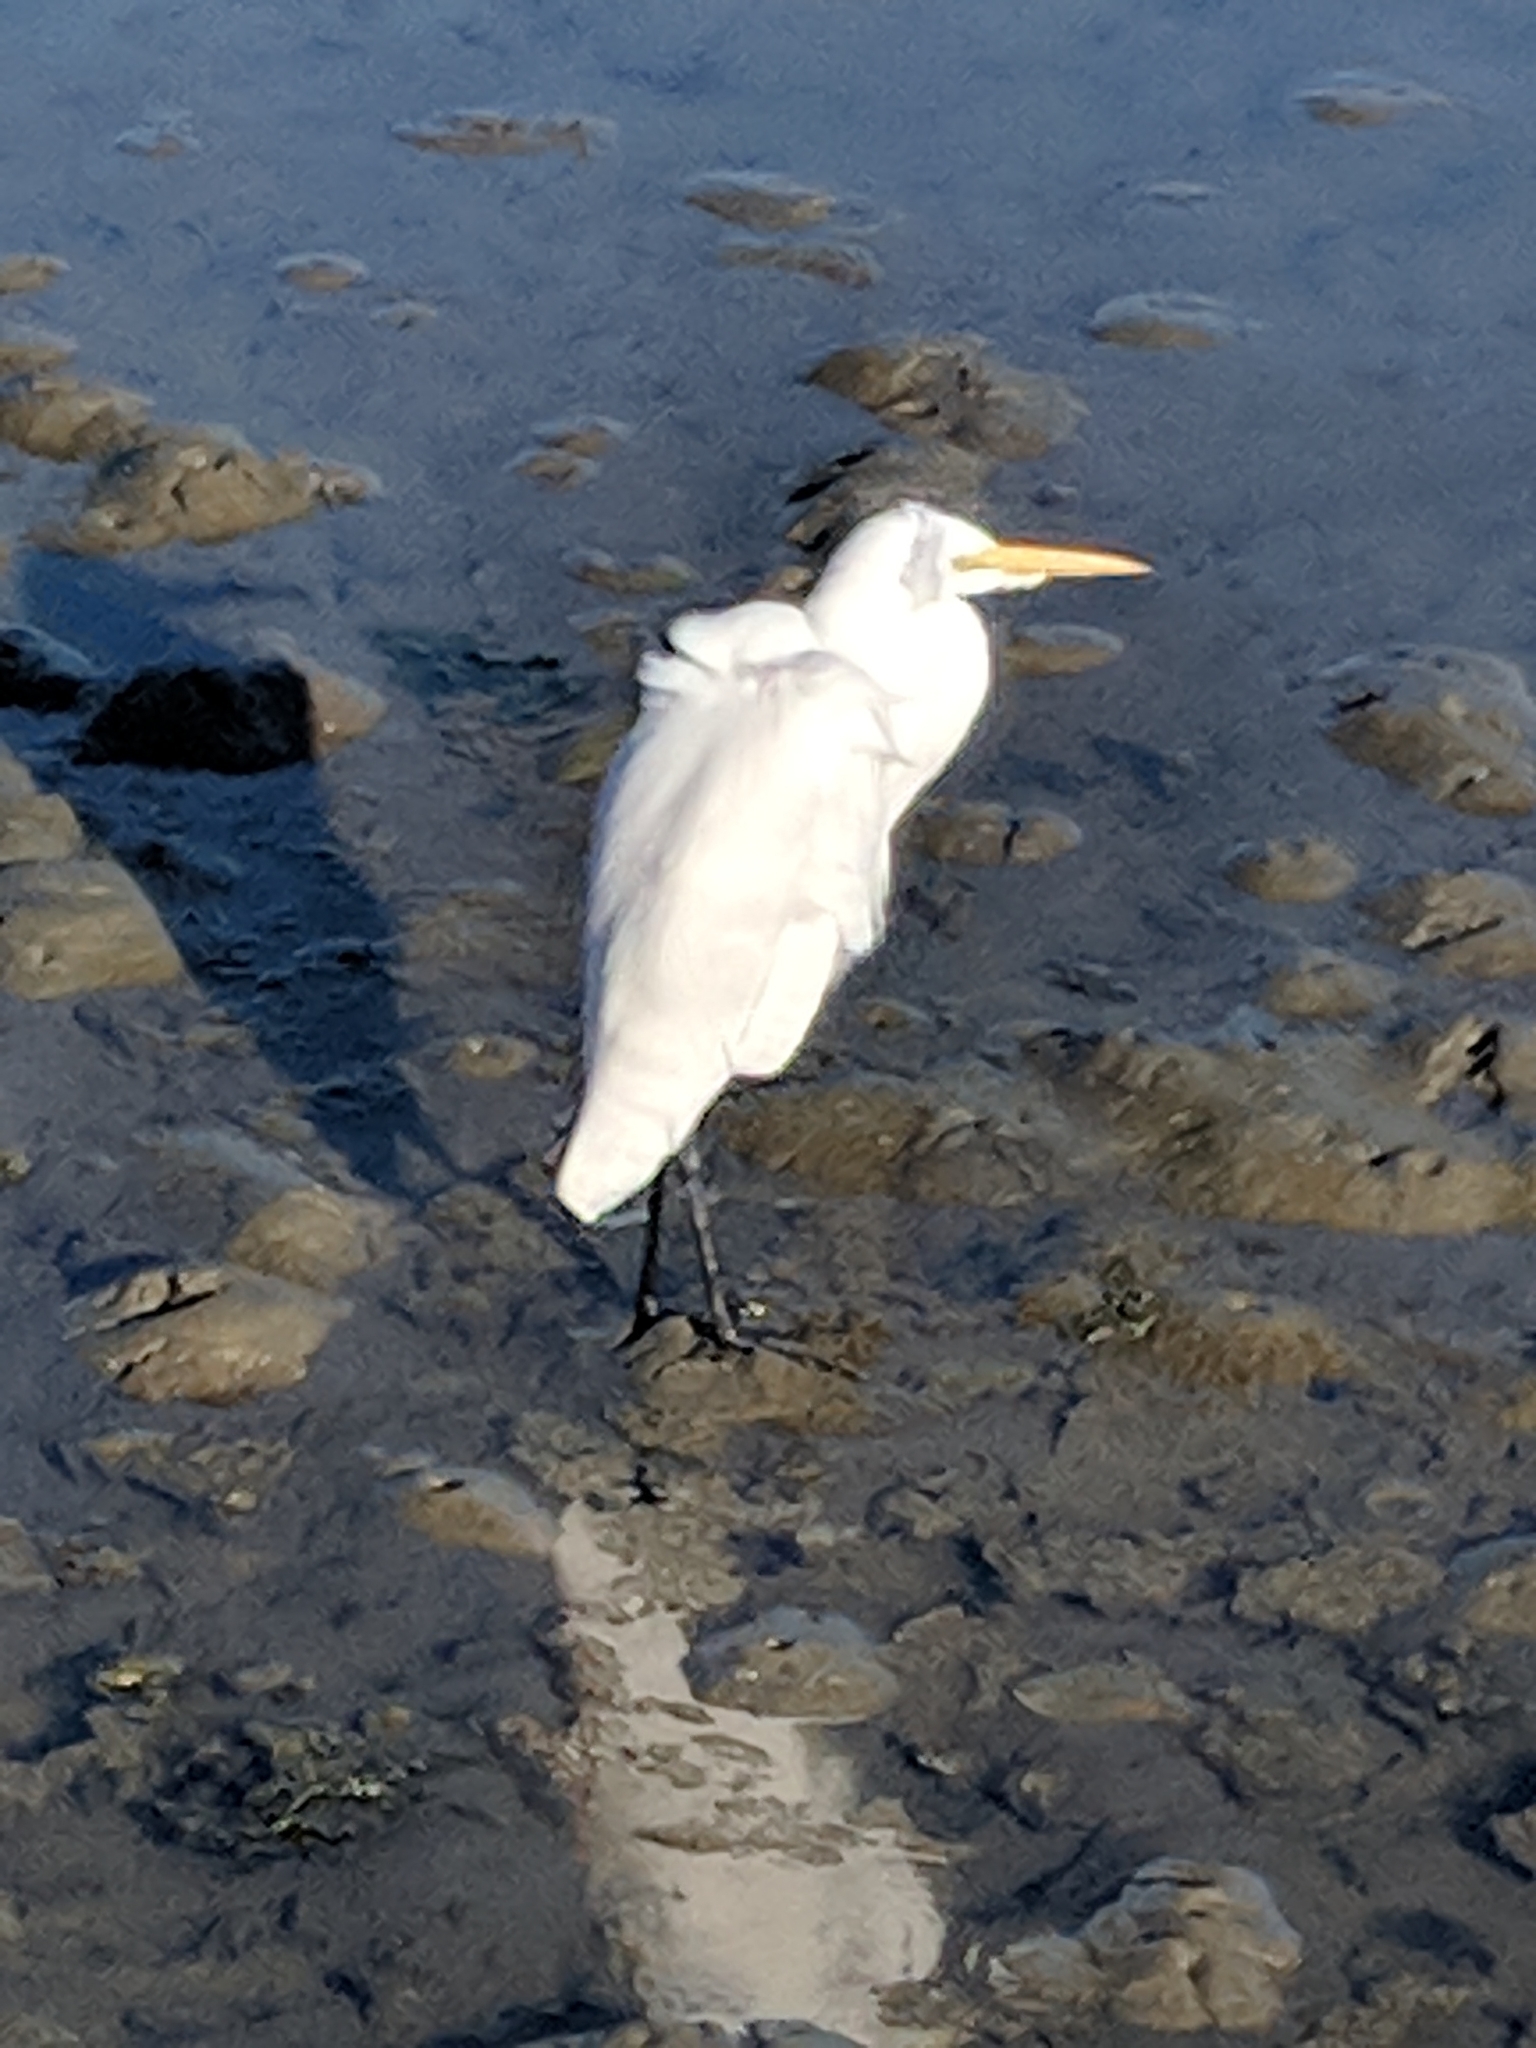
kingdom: Animalia
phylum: Chordata
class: Aves
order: Pelecaniformes
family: Ardeidae
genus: Ardea
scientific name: Ardea alba
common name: Great egret
